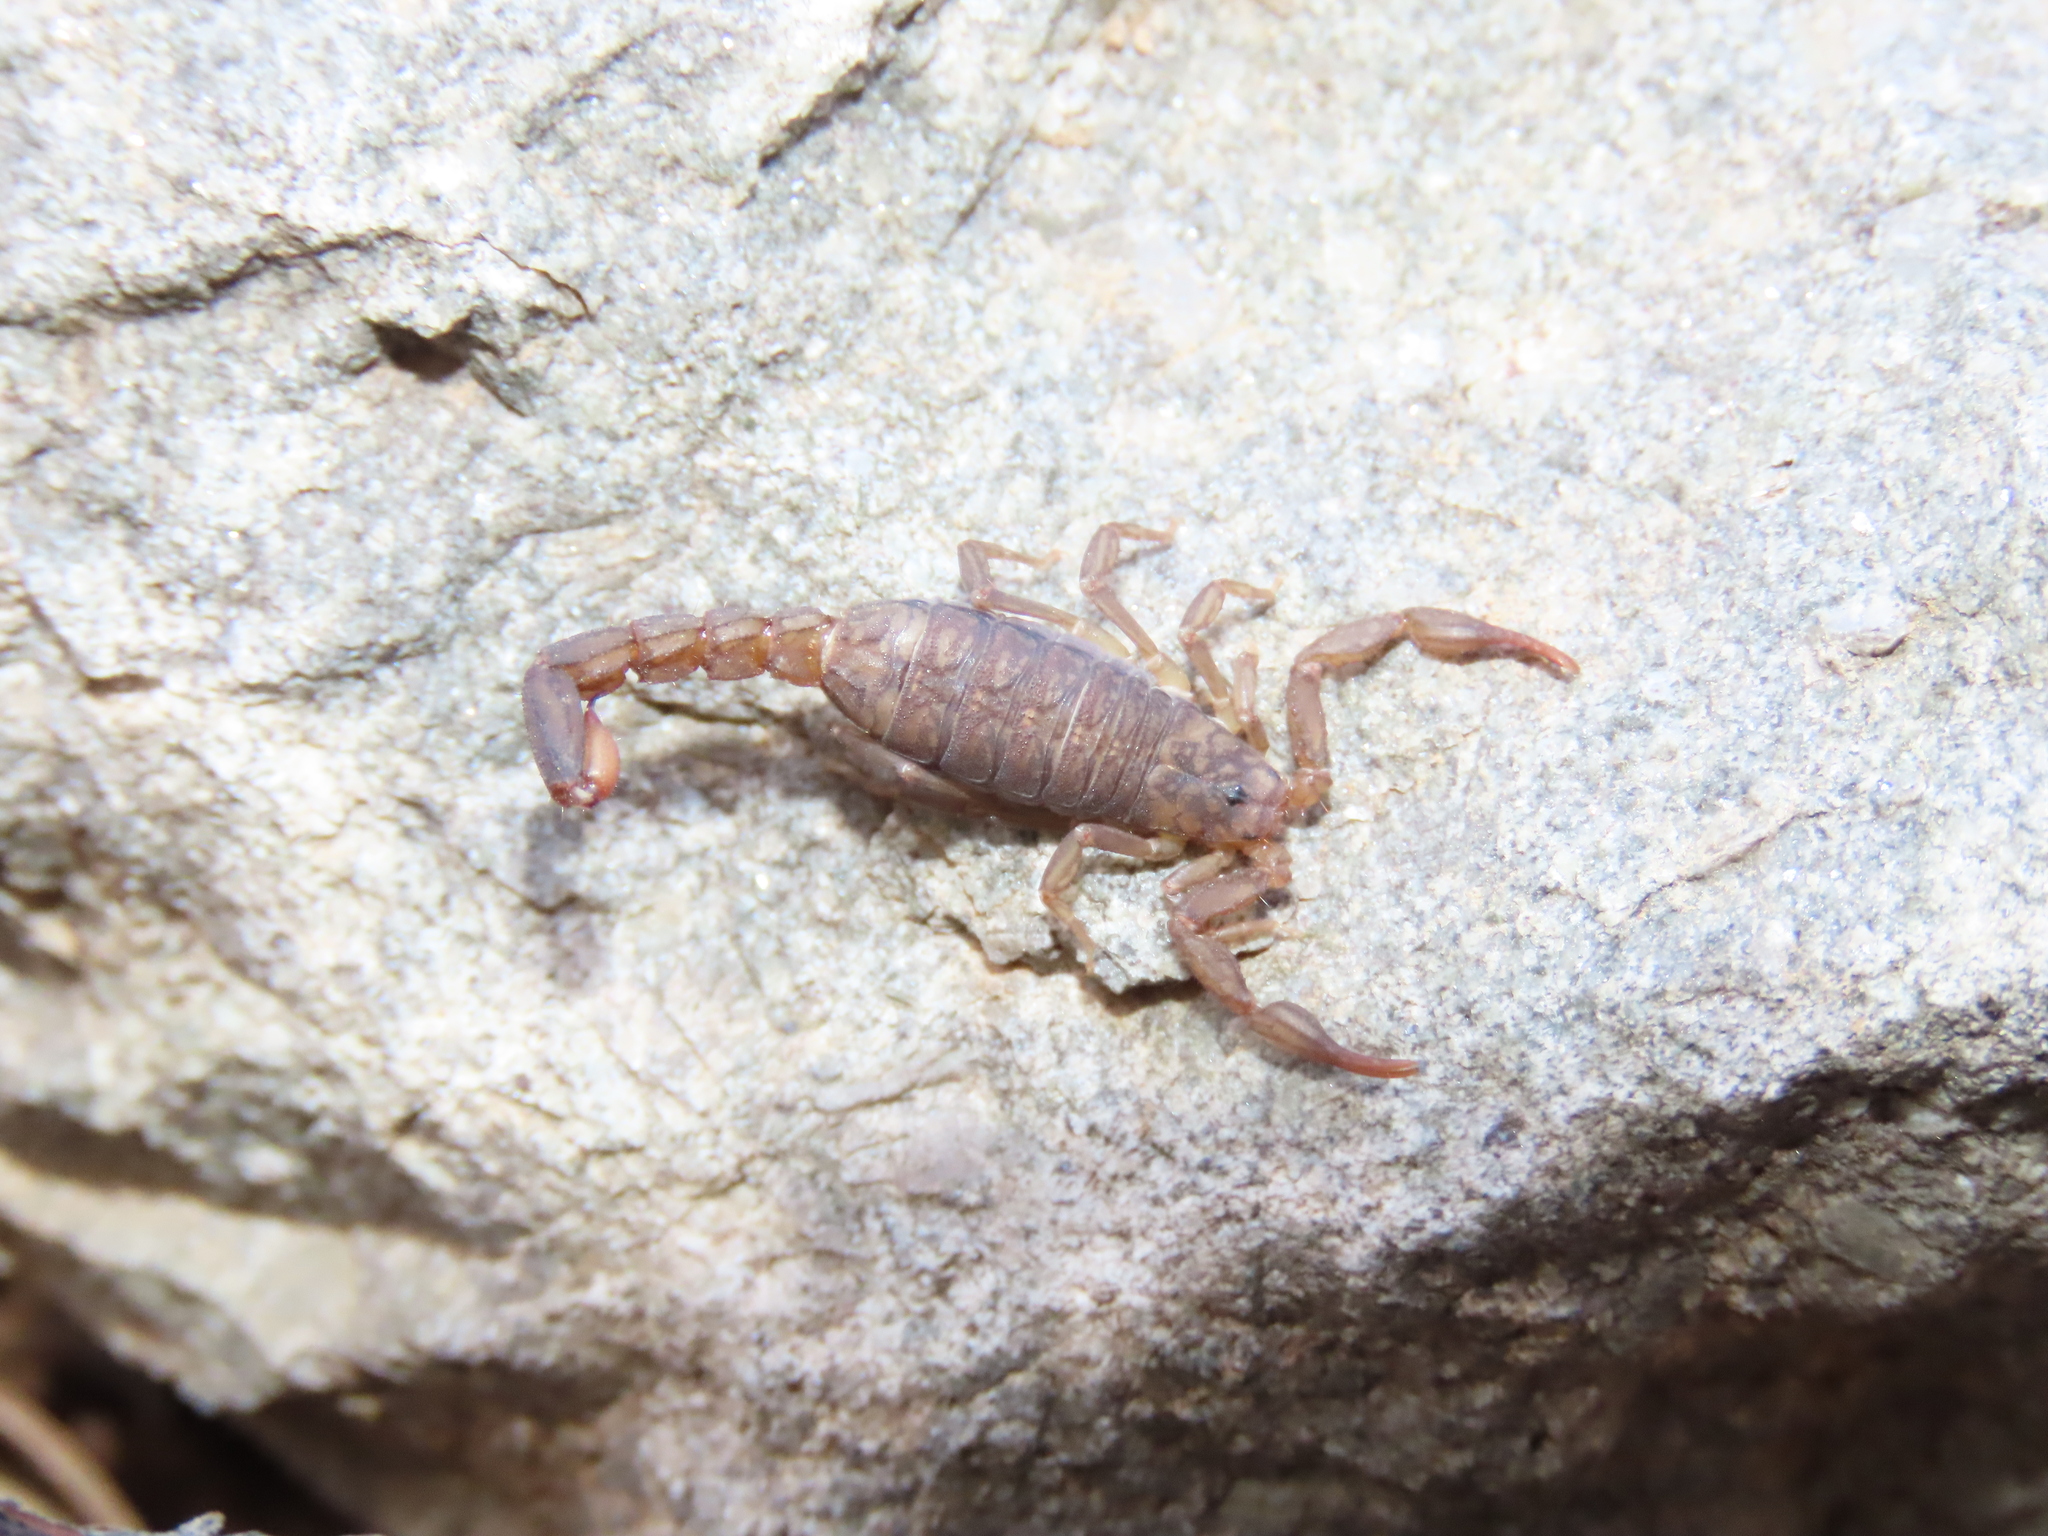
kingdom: Animalia
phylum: Arthropoda
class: Arachnida
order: Scorpiones
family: Vaejovidae
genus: Vaejovis
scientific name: Vaejovis cashi
